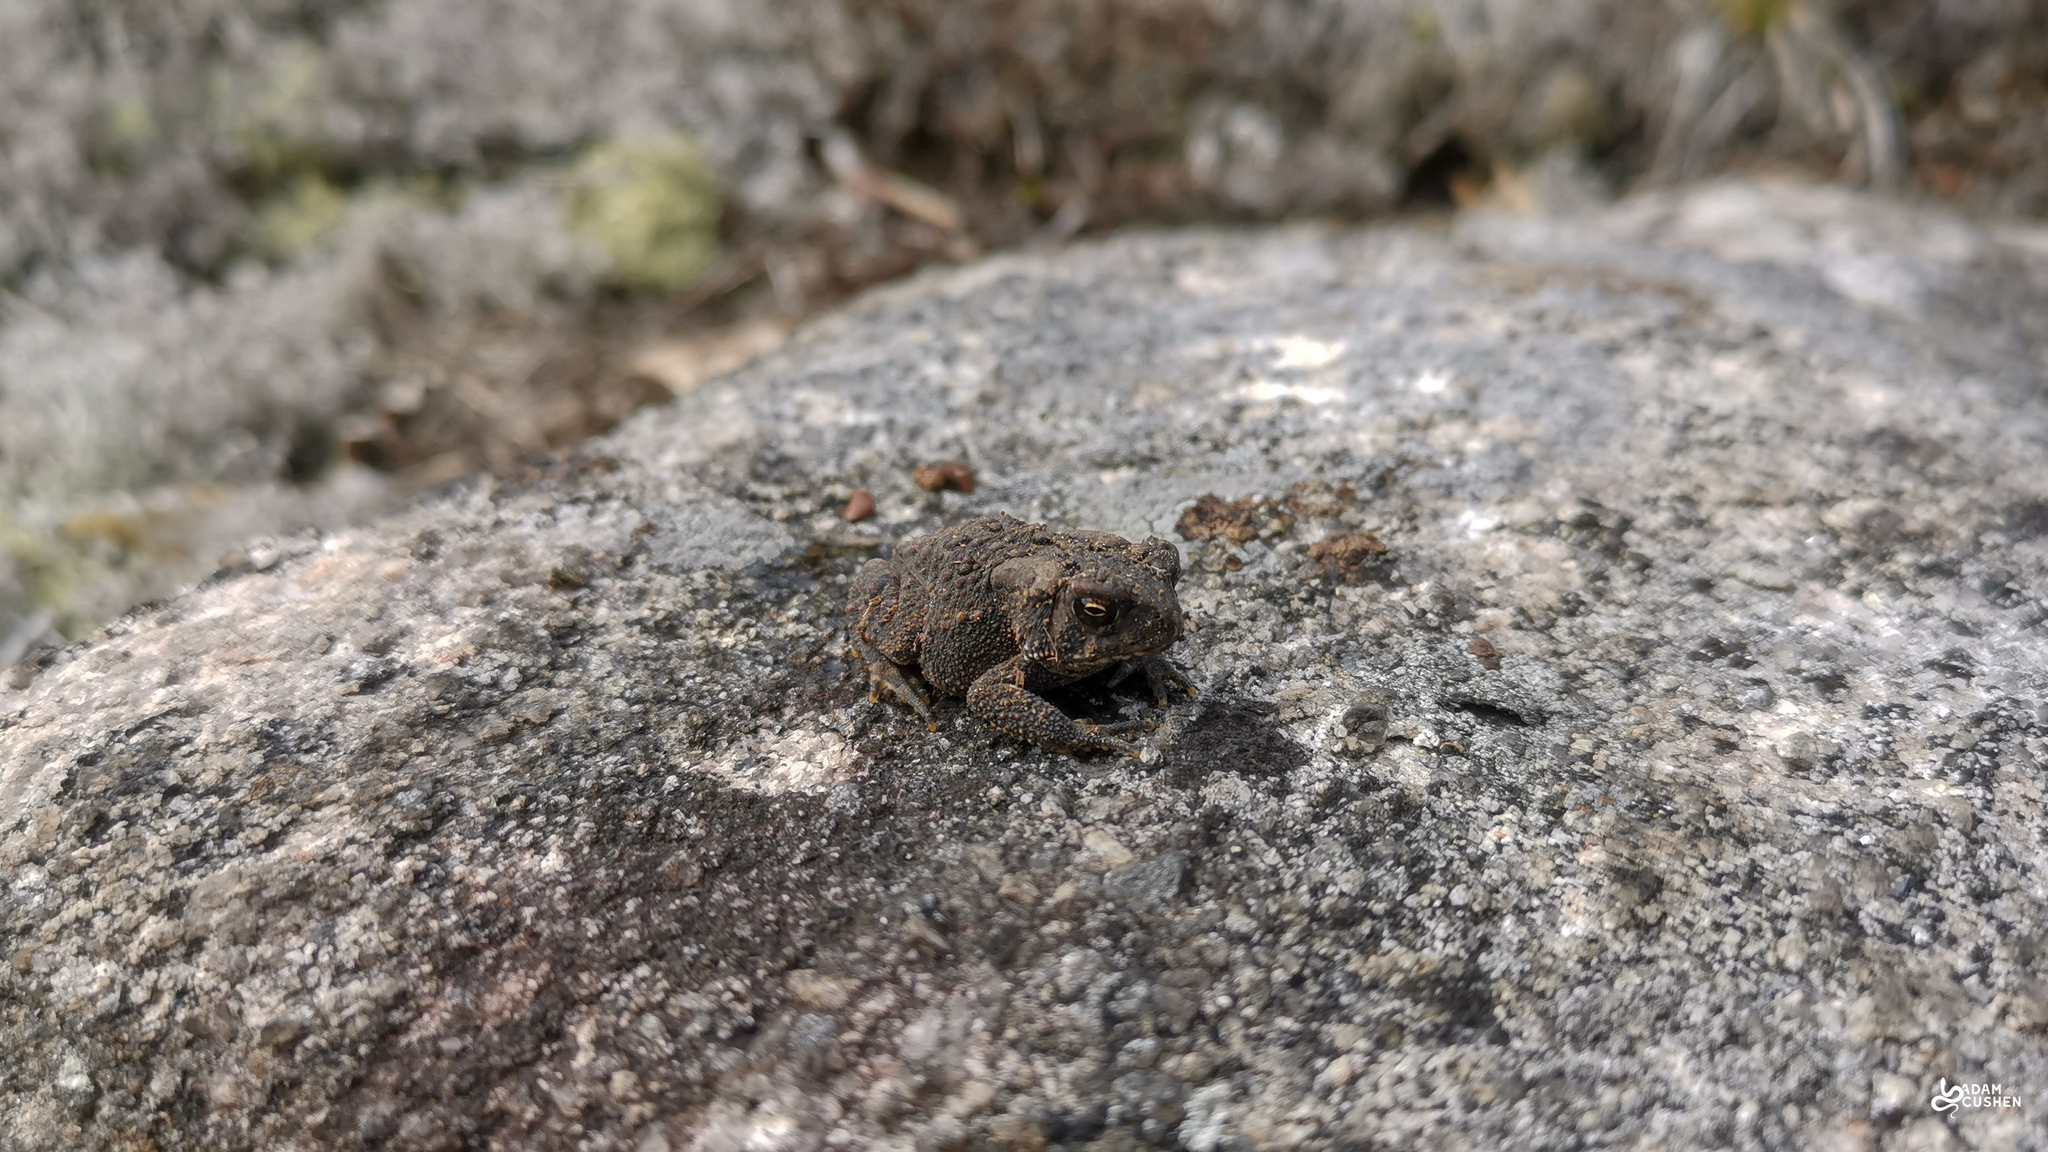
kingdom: Animalia
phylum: Chordata
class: Amphibia
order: Anura
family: Bufonidae
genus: Anaxyrus
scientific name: Anaxyrus americanus
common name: American toad
